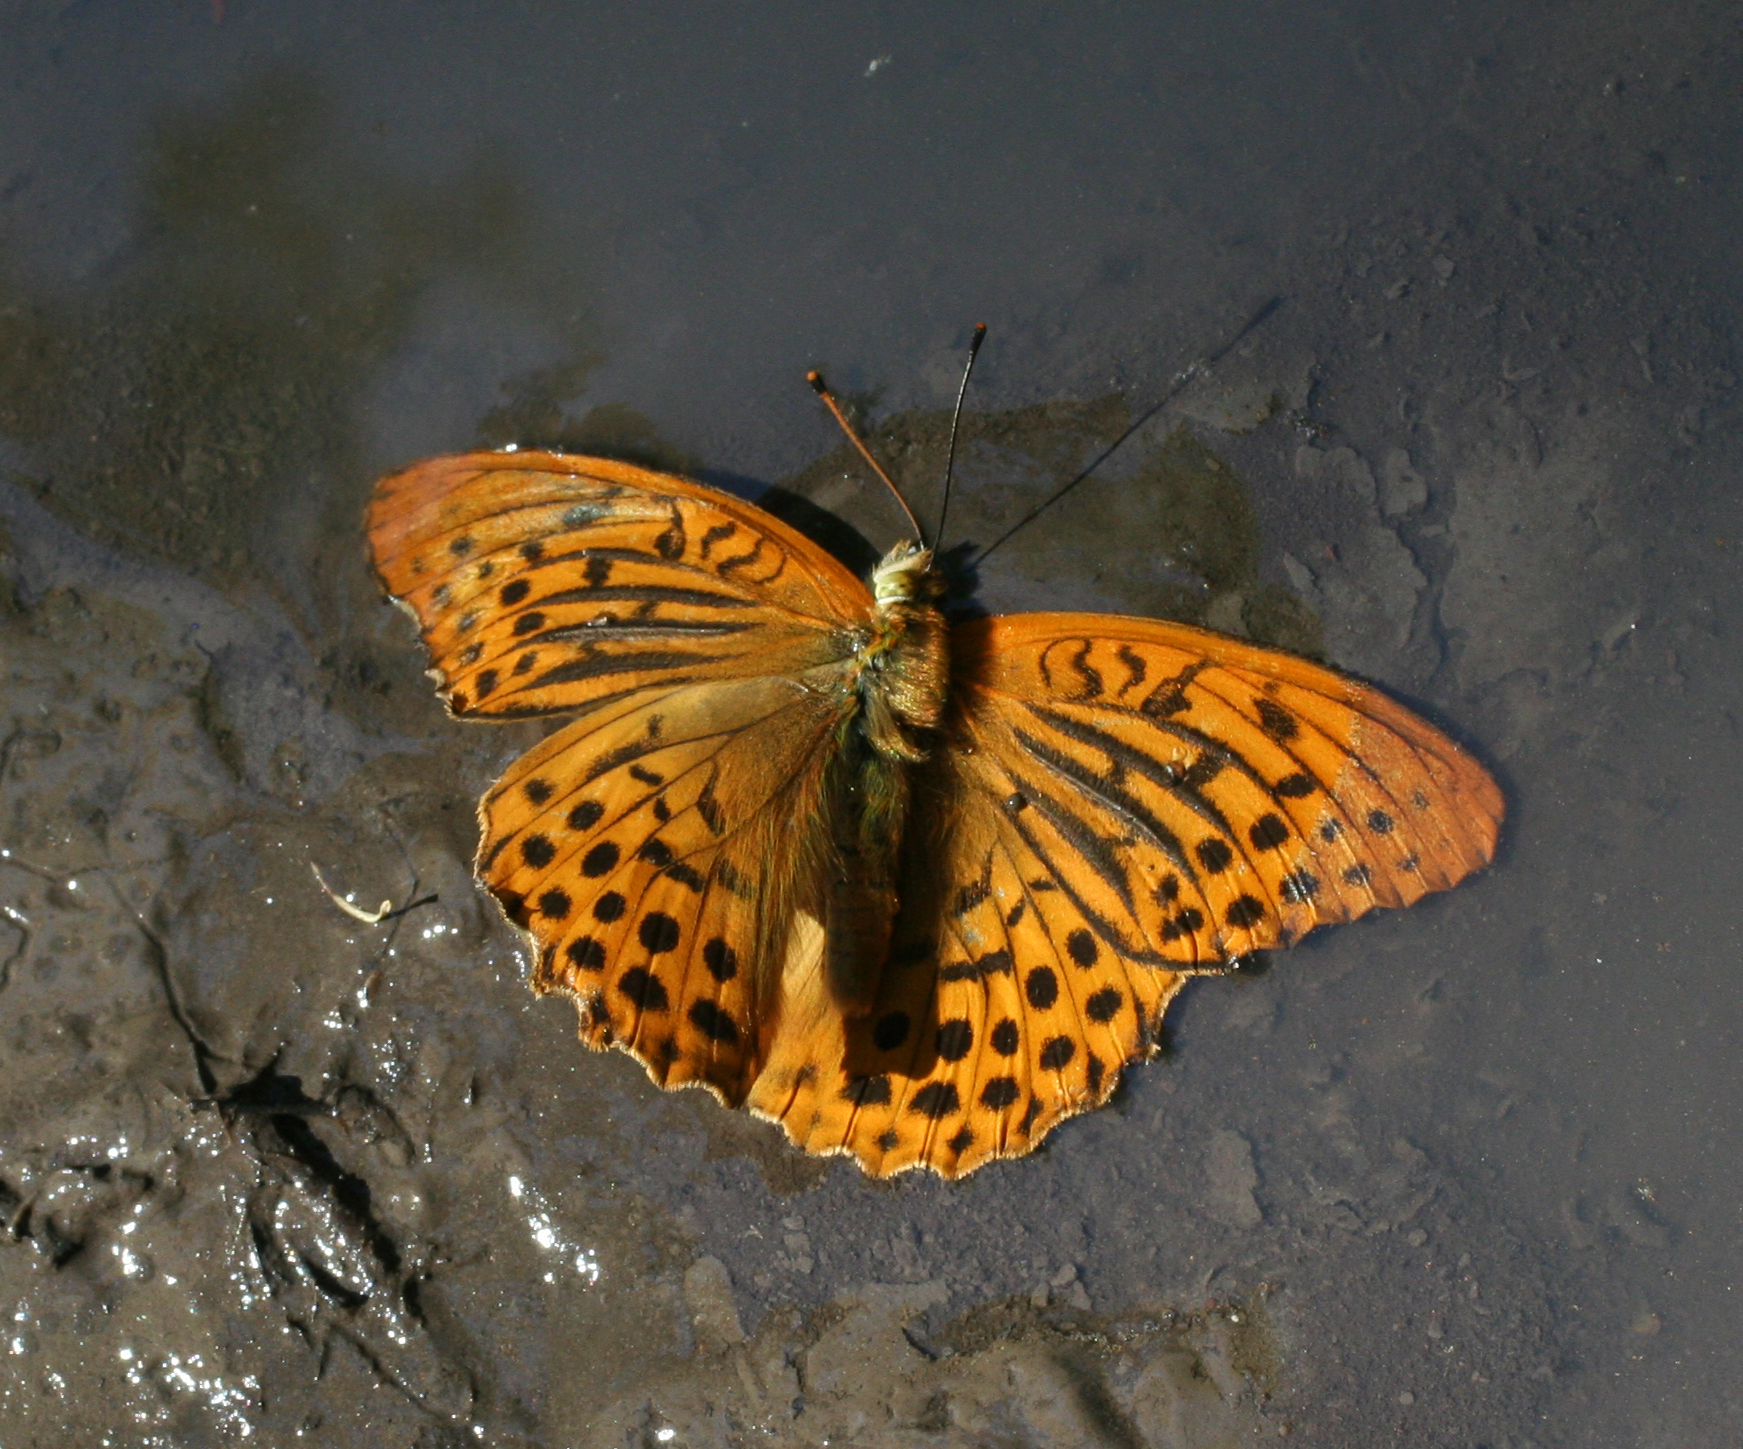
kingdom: Animalia
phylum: Arthropoda
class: Insecta
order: Lepidoptera
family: Nymphalidae
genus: Argynnis
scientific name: Argynnis paphia
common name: Silver-washed fritillary
